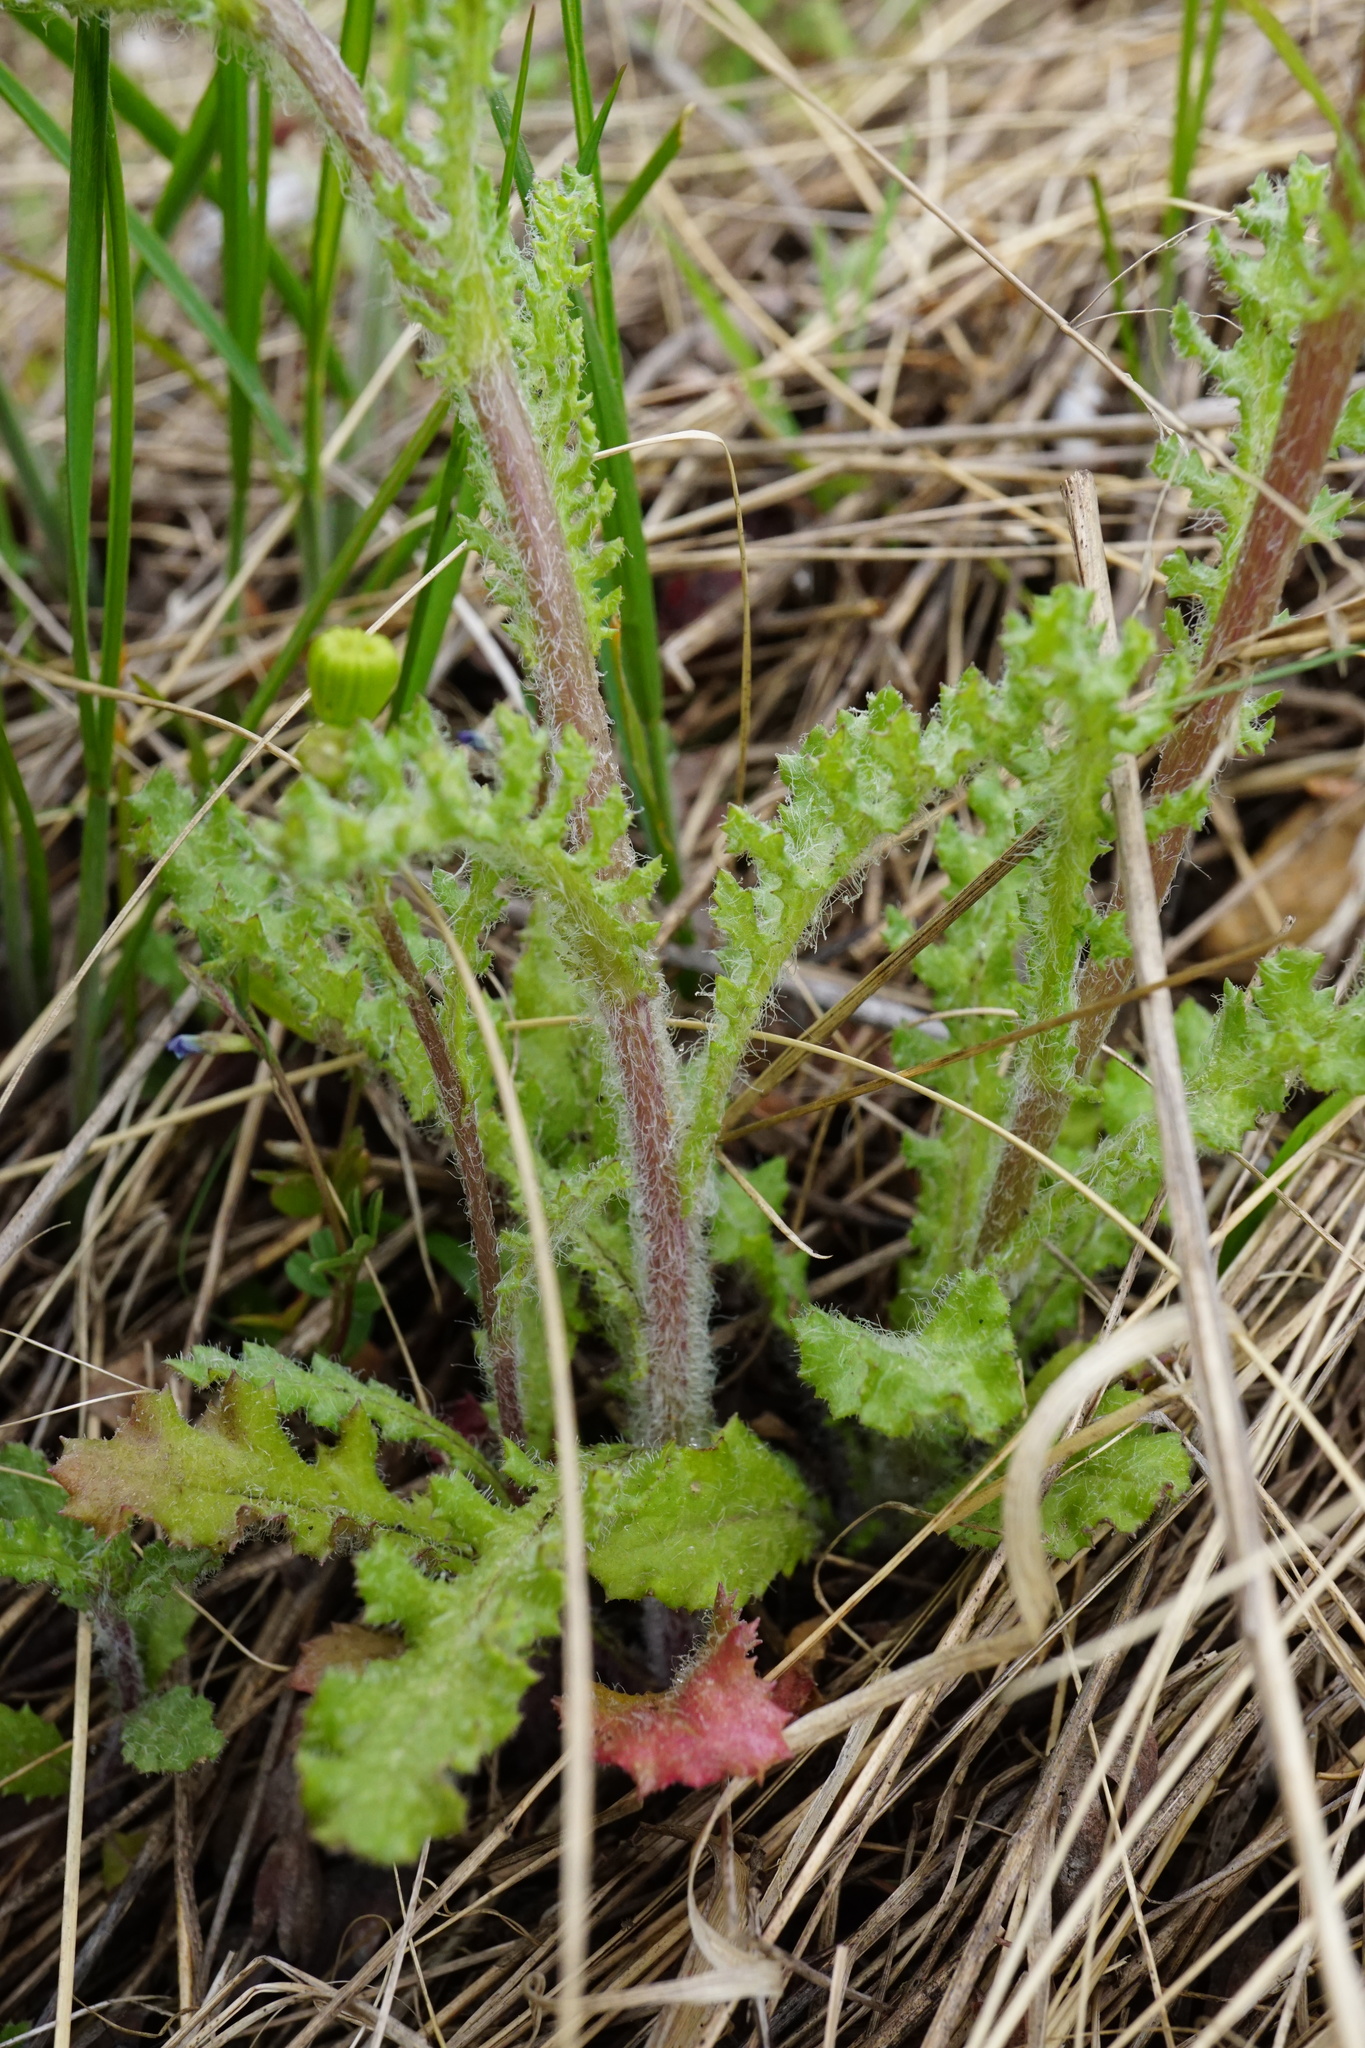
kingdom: Plantae
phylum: Tracheophyta
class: Magnoliopsida
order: Asterales
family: Asteraceae
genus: Senecio
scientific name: Senecio vernalis
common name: Eastern groundsel
